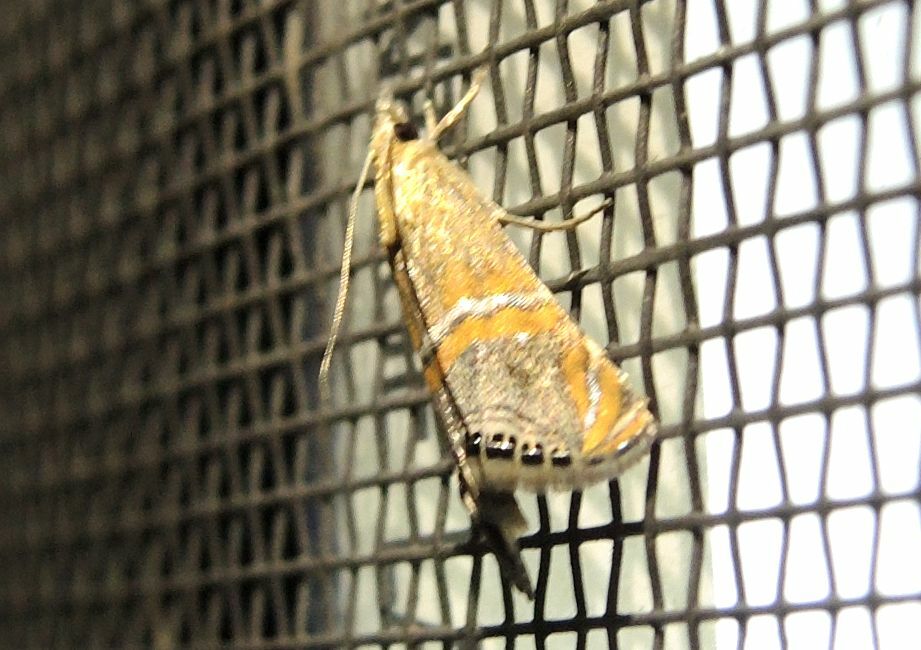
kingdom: Animalia
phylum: Arthropoda
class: Insecta
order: Lepidoptera
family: Crambidae
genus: Euchromius
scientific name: Euchromius bella
